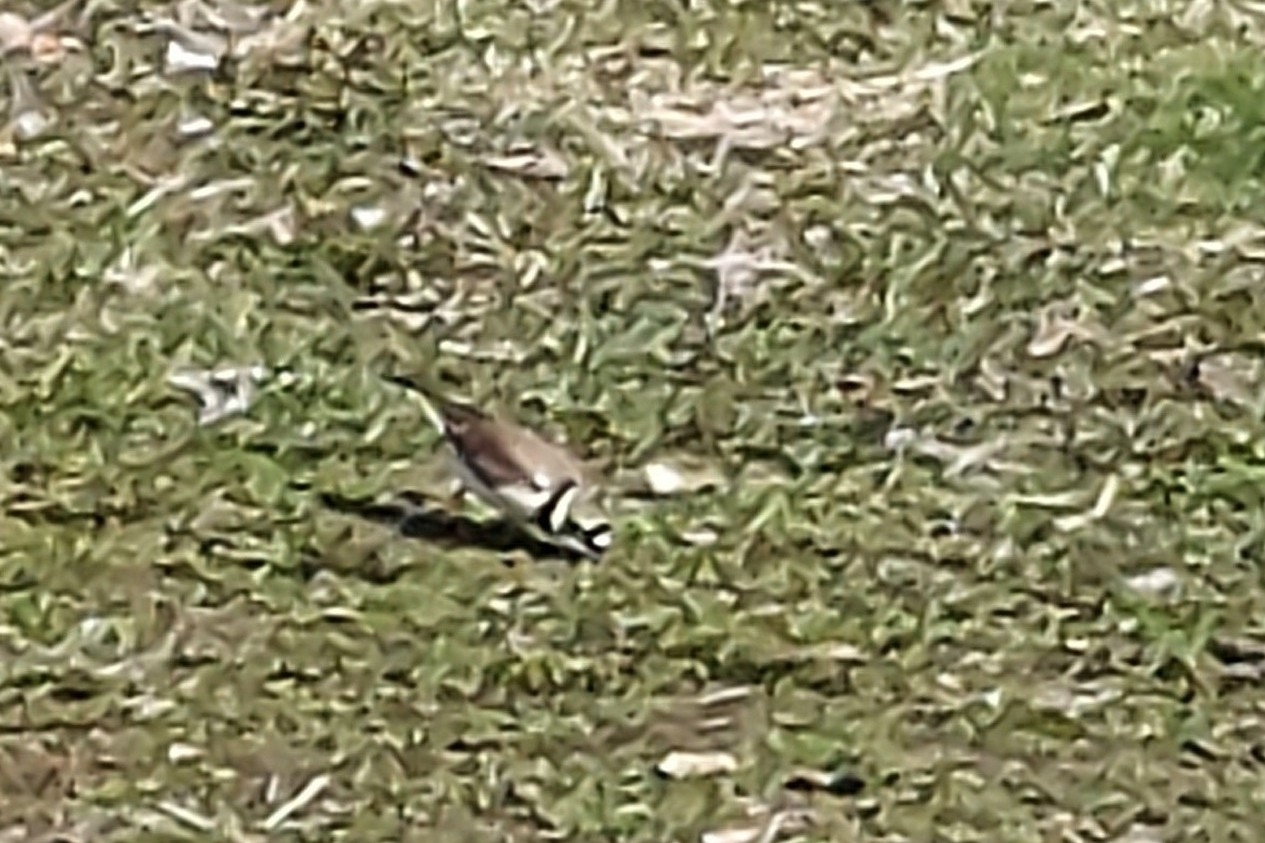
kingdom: Animalia
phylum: Chordata
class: Aves
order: Charadriiformes
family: Charadriidae
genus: Charadrius
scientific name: Charadrius dubius
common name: Little ringed plover
